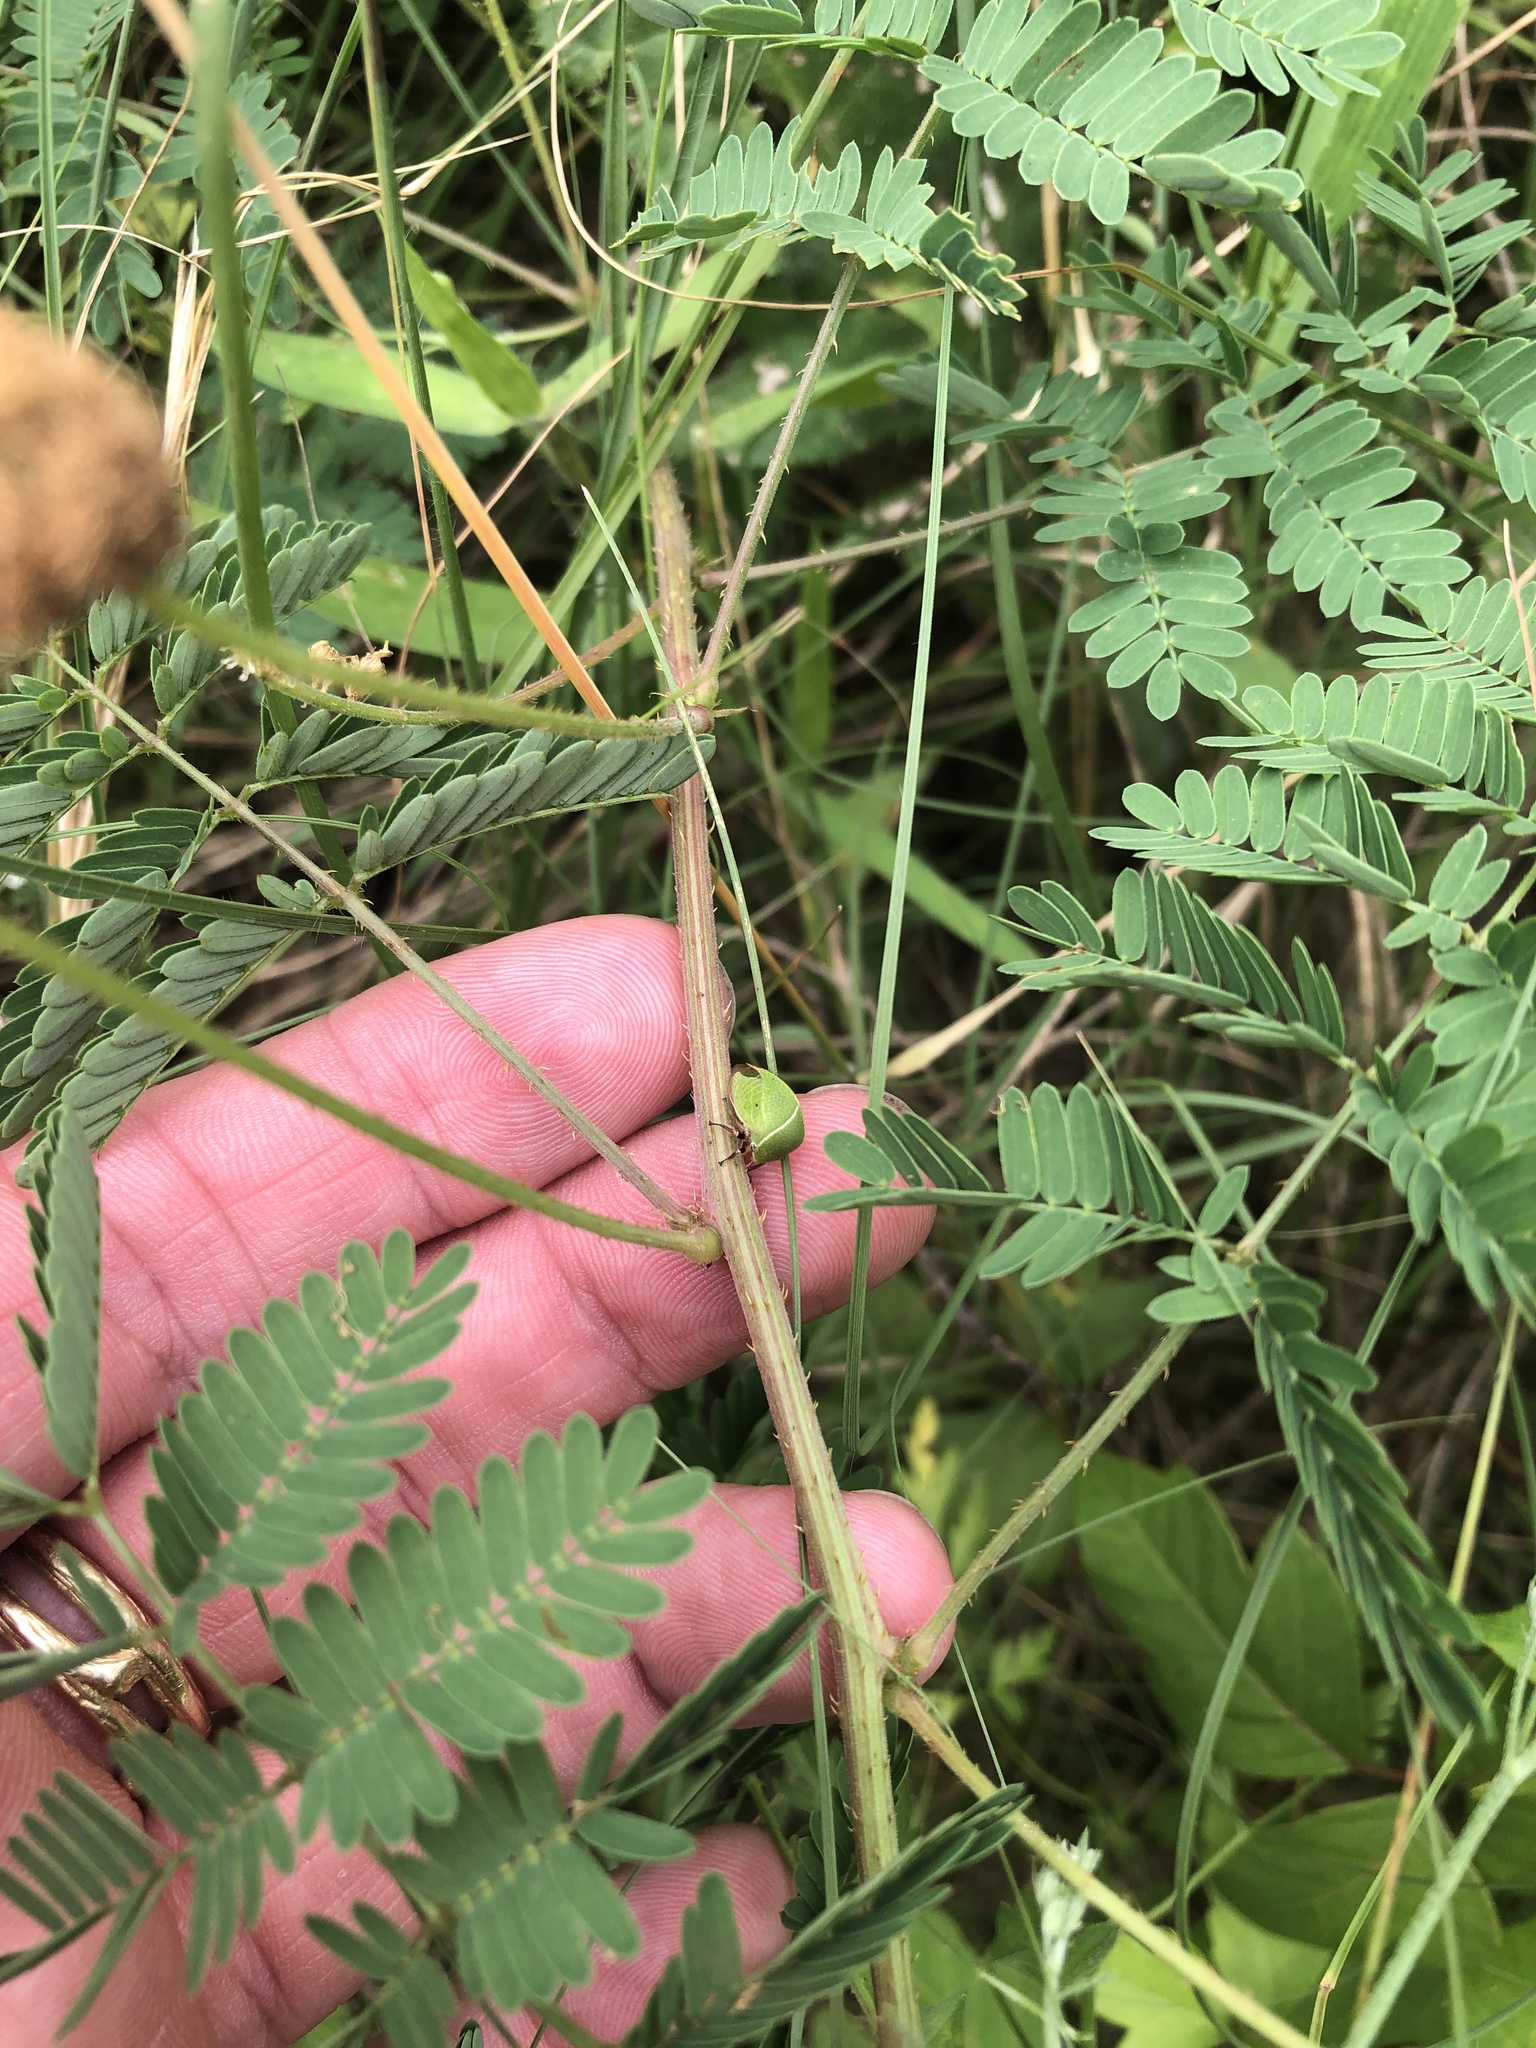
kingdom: Plantae
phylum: Tracheophyta
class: Magnoliopsida
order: Fabales
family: Fabaceae
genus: Mimosa
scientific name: Mimosa quadrivalvis
